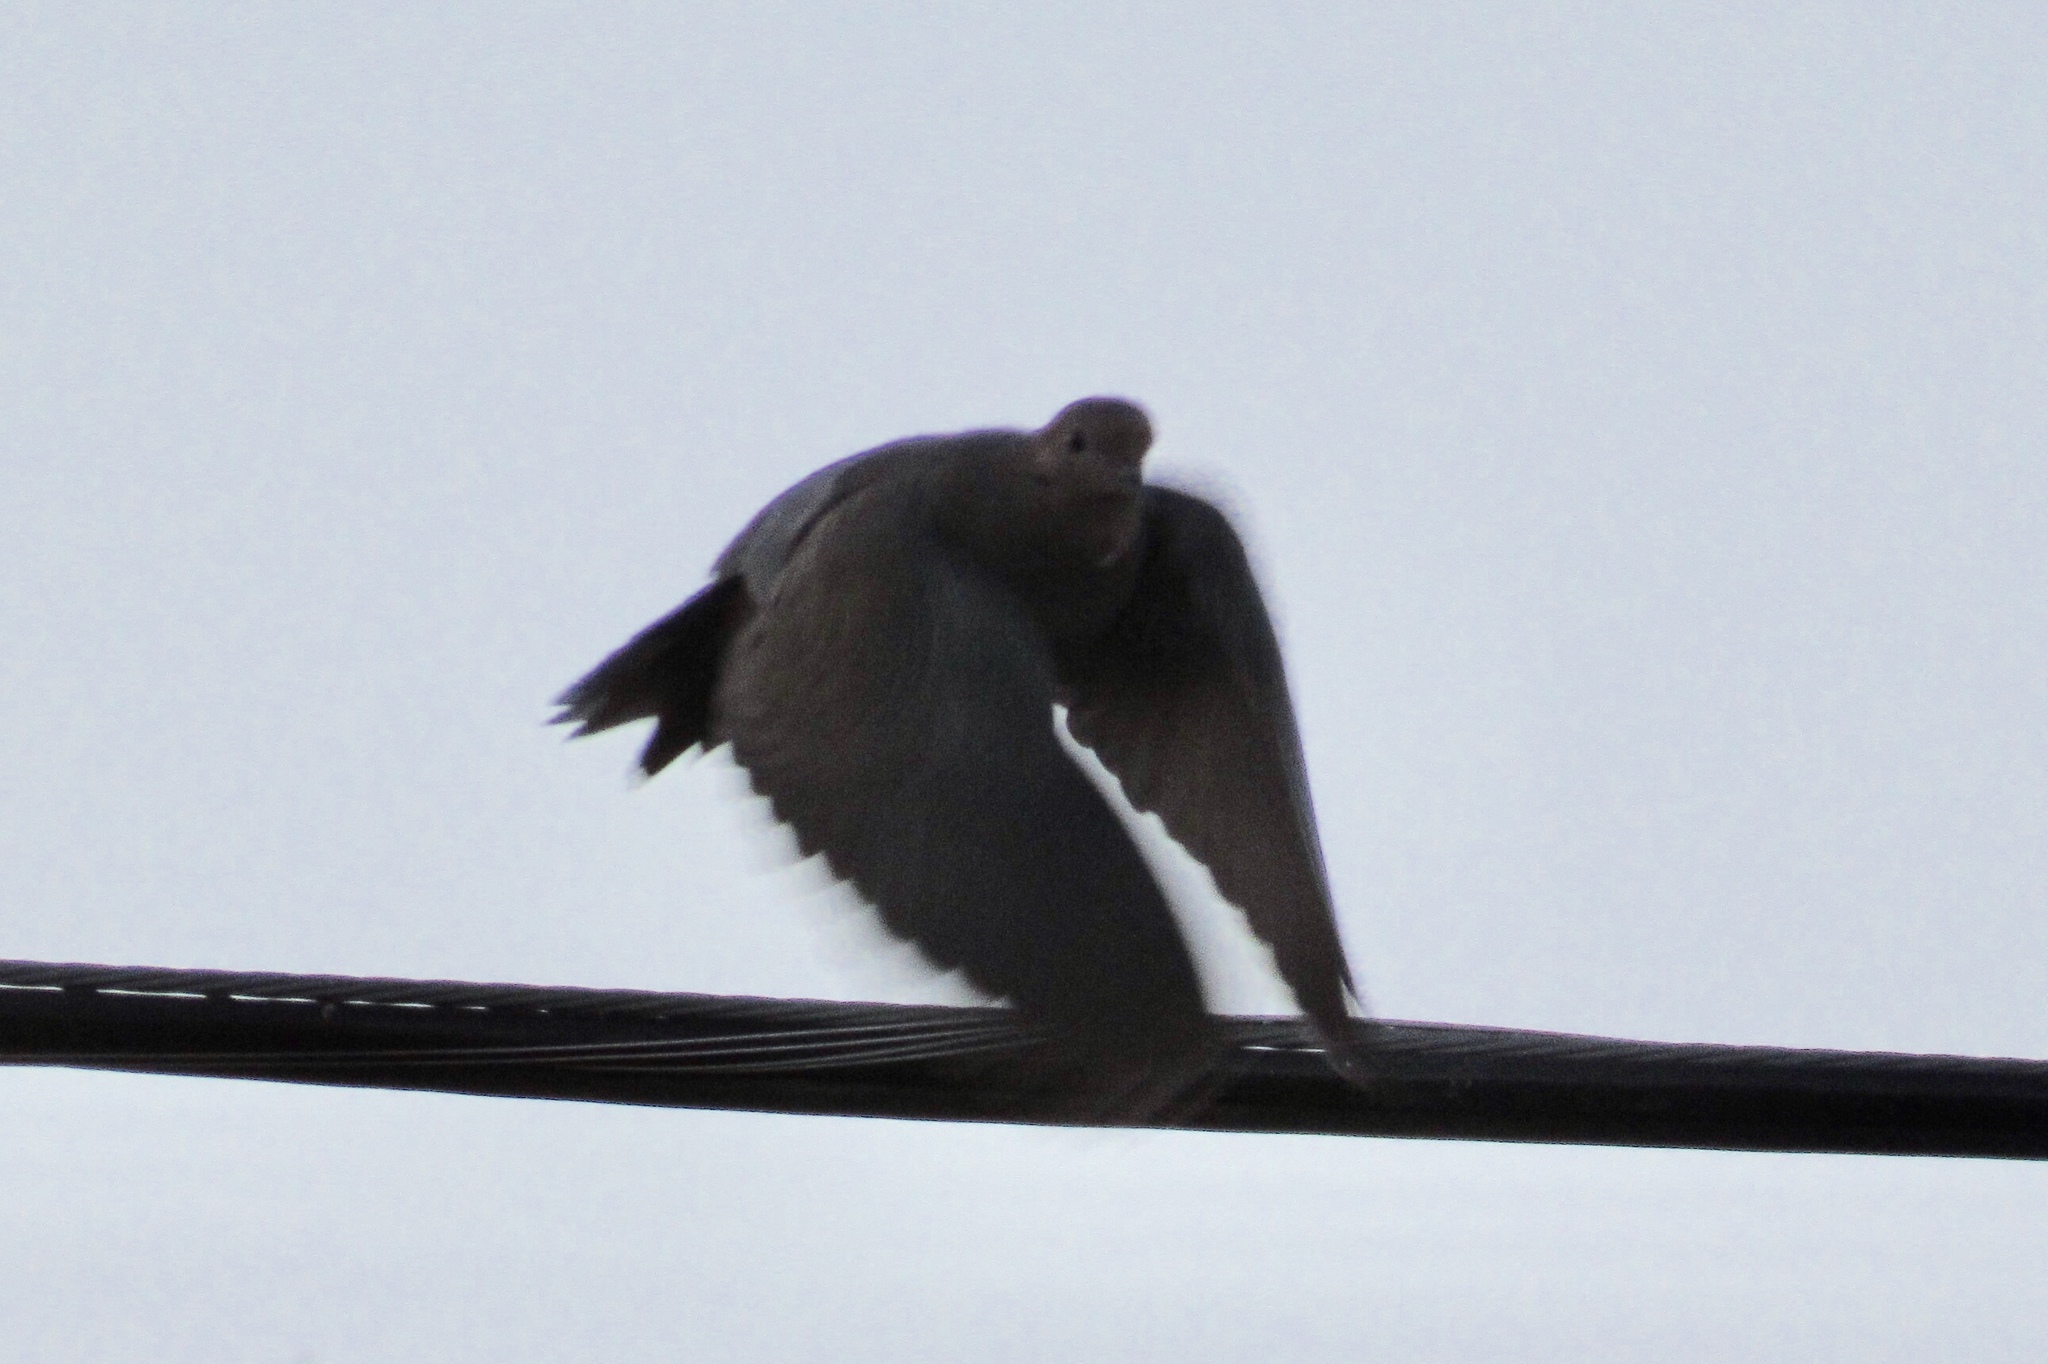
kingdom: Animalia
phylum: Chordata
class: Aves
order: Columbiformes
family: Columbidae
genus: Zenaida
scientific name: Zenaida macroura
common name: Mourning dove
